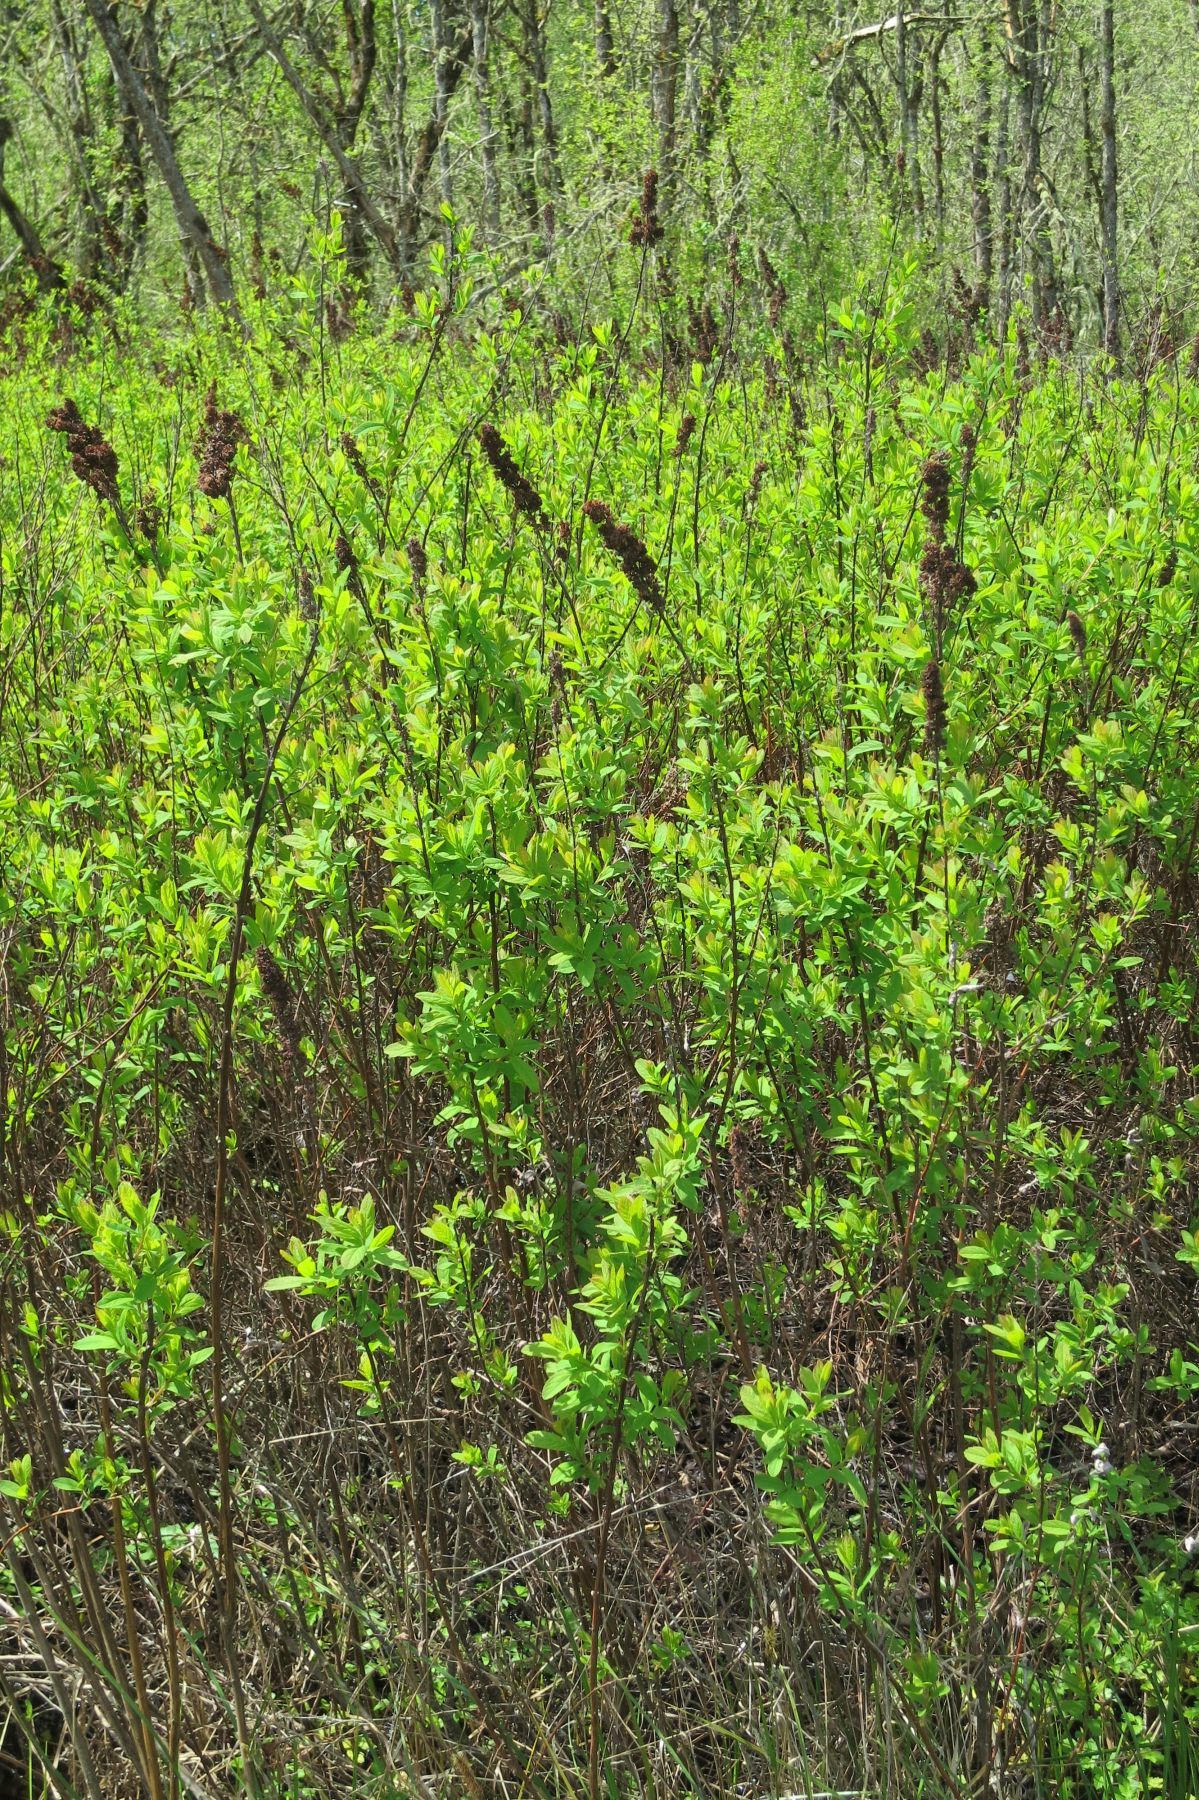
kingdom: Plantae
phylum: Tracheophyta
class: Magnoliopsida
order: Rosales
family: Rosaceae
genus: Spiraea
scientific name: Spiraea douglasii
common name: Steeplebush
